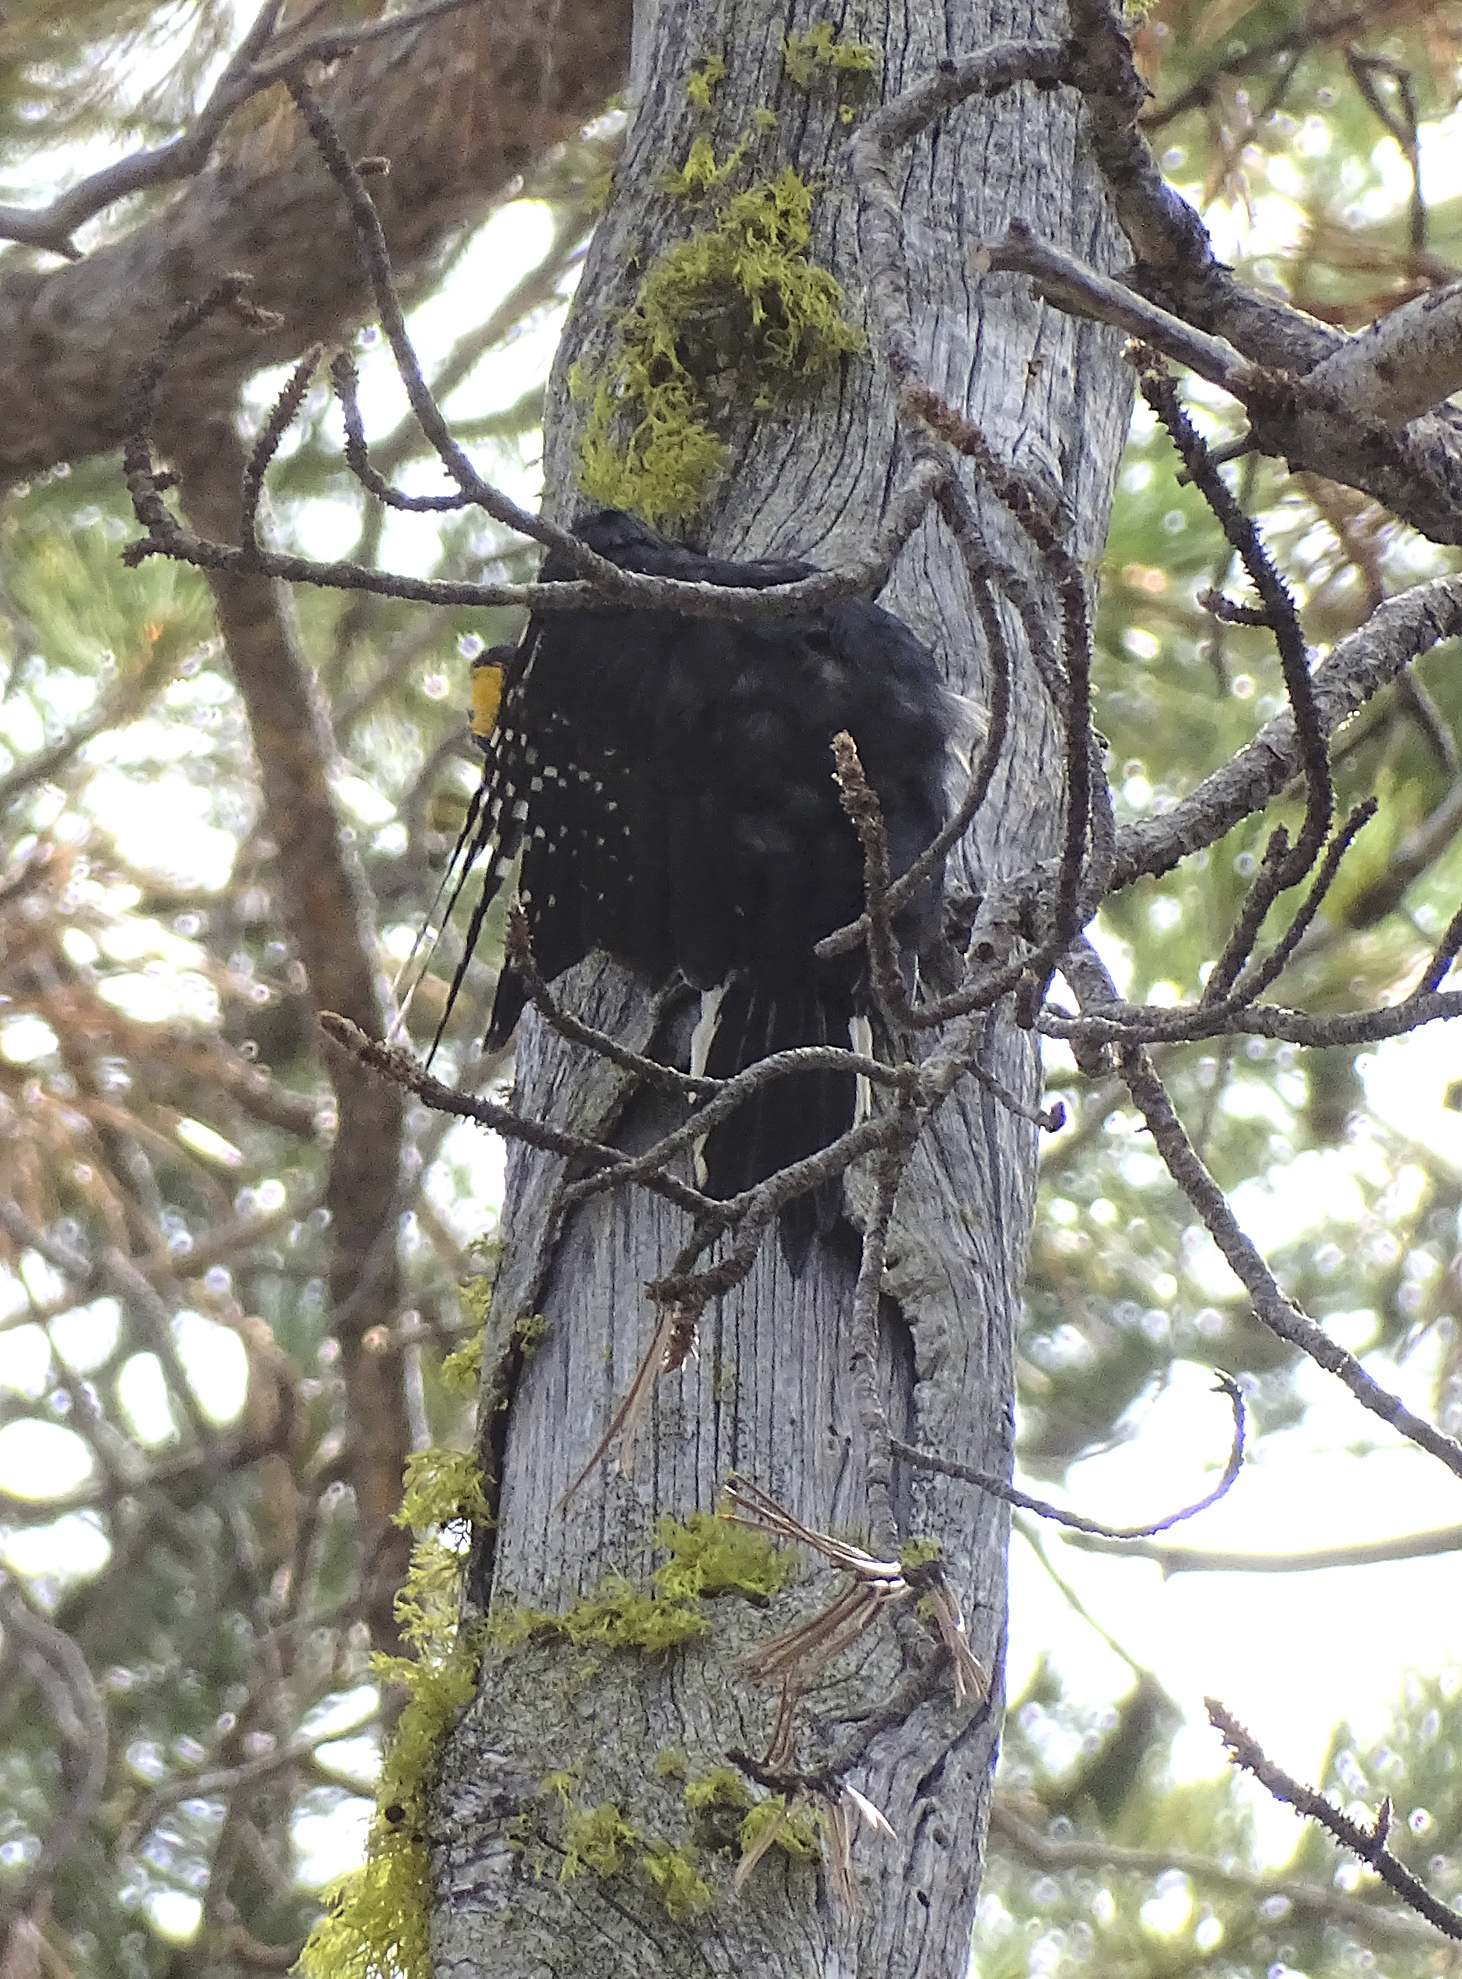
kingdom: Animalia
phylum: Chordata
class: Aves
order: Piciformes
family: Picidae
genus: Picoides
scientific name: Picoides arcticus
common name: Black-backed woodpecker
